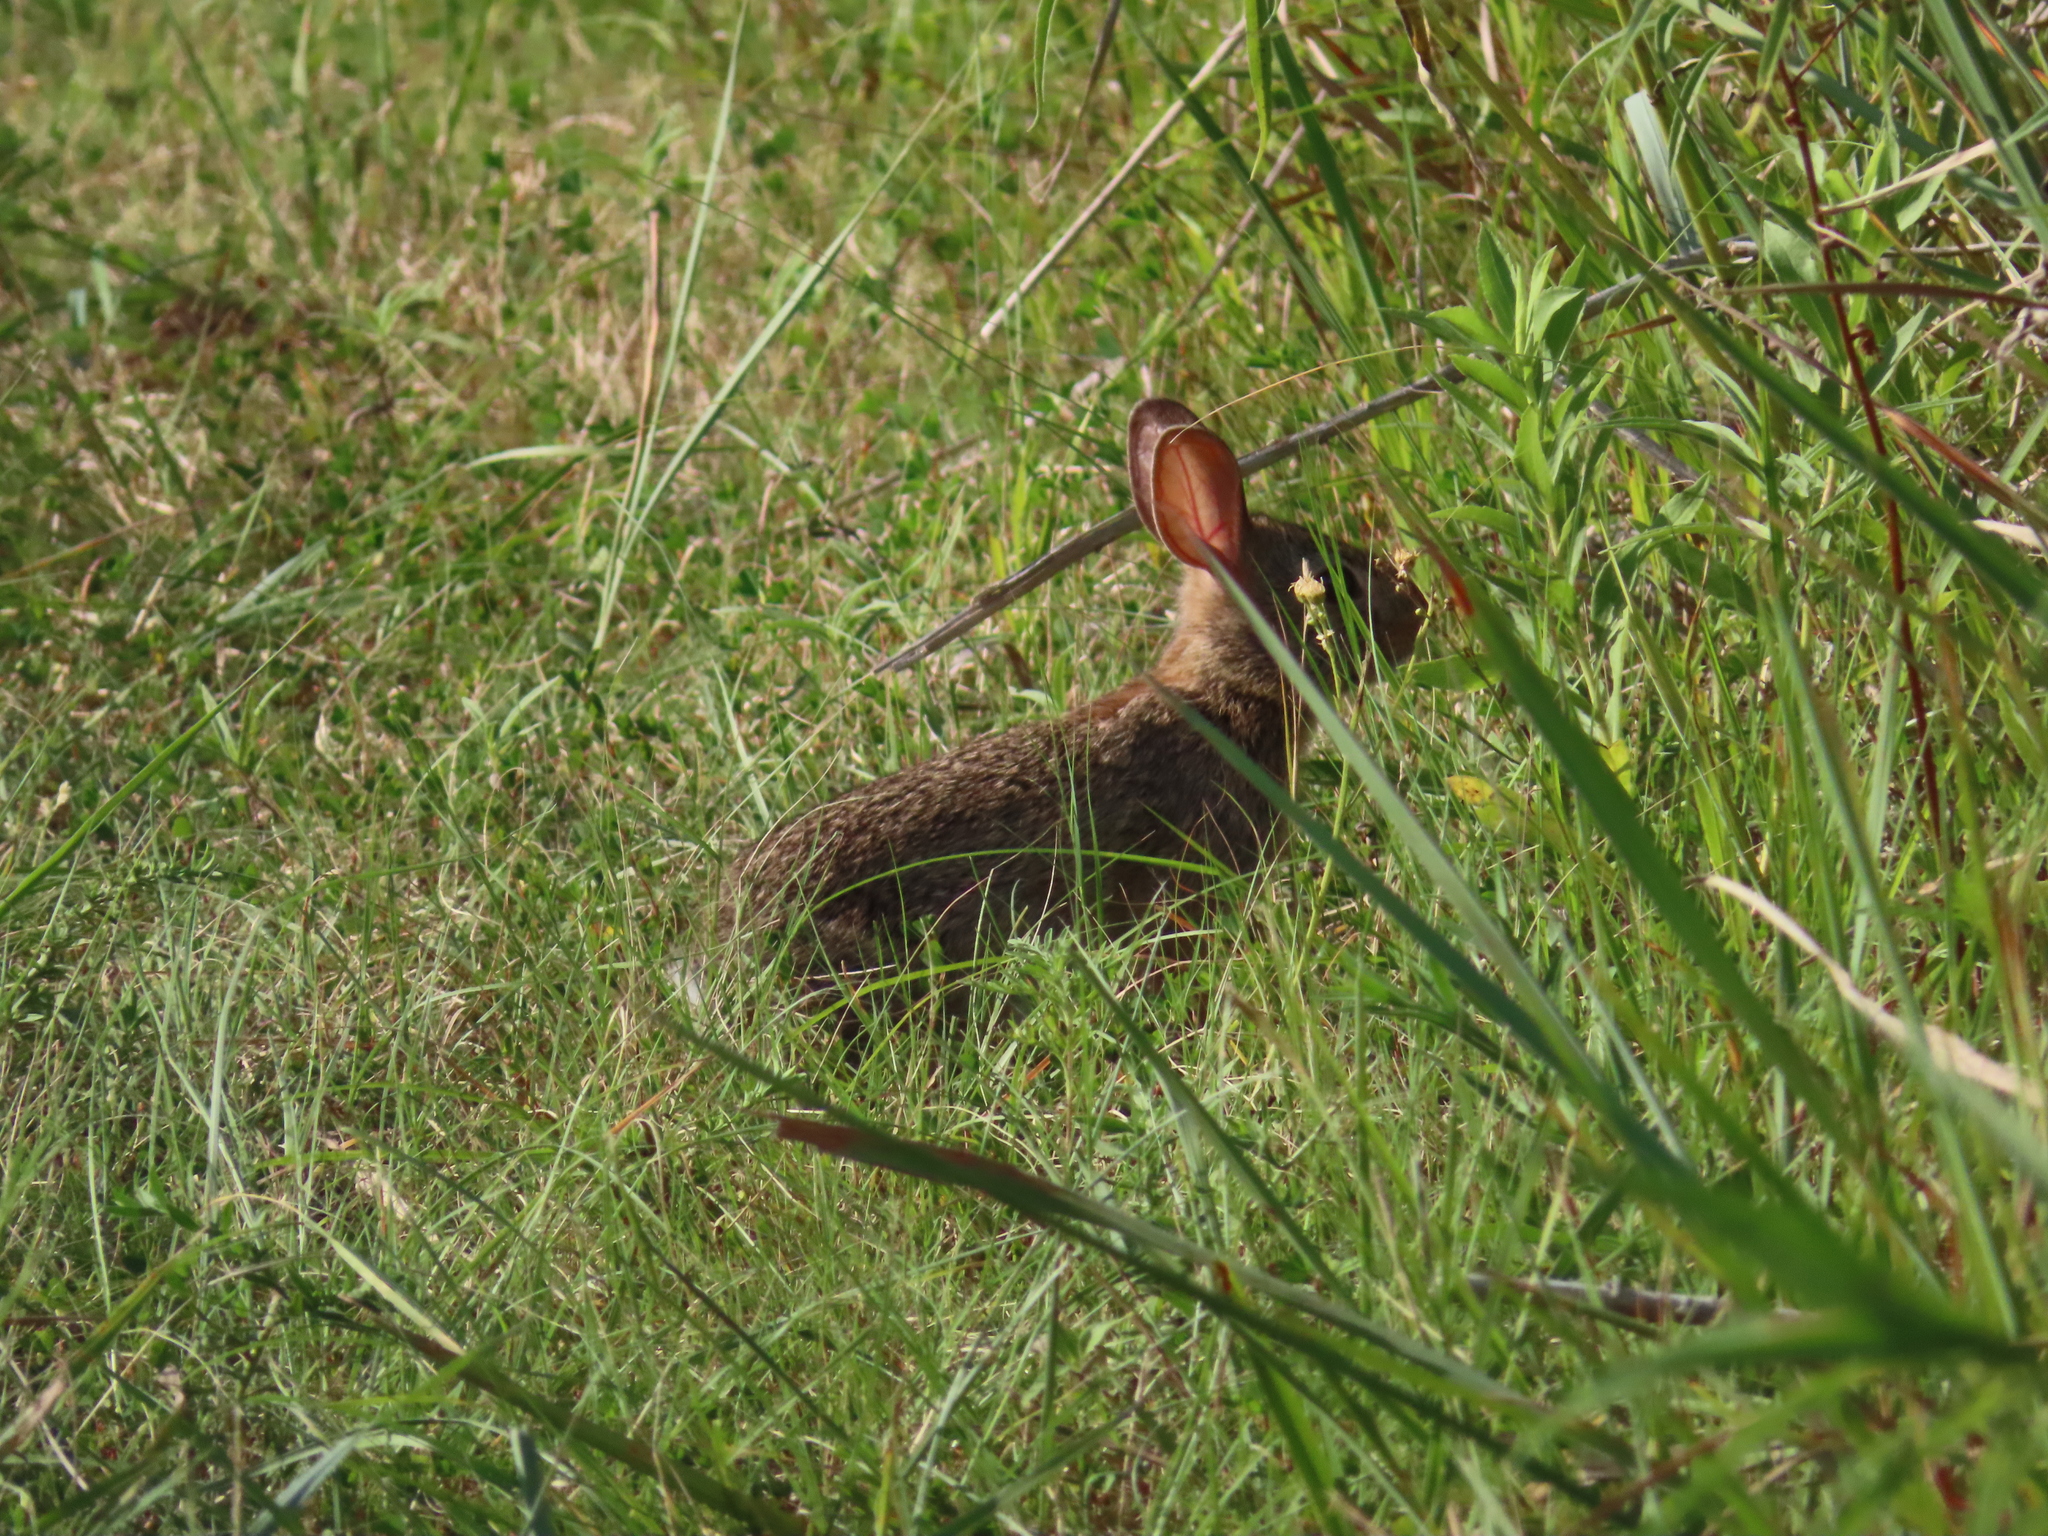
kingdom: Animalia
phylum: Chordata
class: Mammalia
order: Lagomorpha
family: Leporidae
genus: Sylvilagus
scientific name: Sylvilagus floridanus
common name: Eastern cottontail
